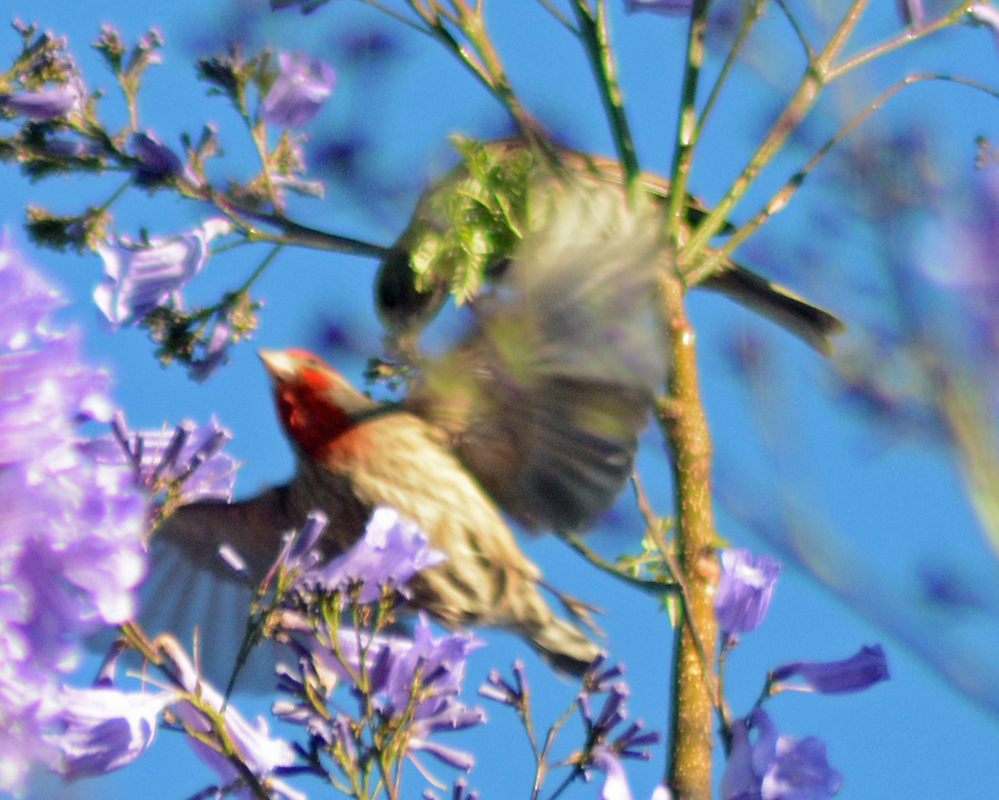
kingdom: Animalia
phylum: Chordata
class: Aves
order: Passeriformes
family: Fringillidae
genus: Haemorhous
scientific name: Haemorhous mexicanus
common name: House finch
